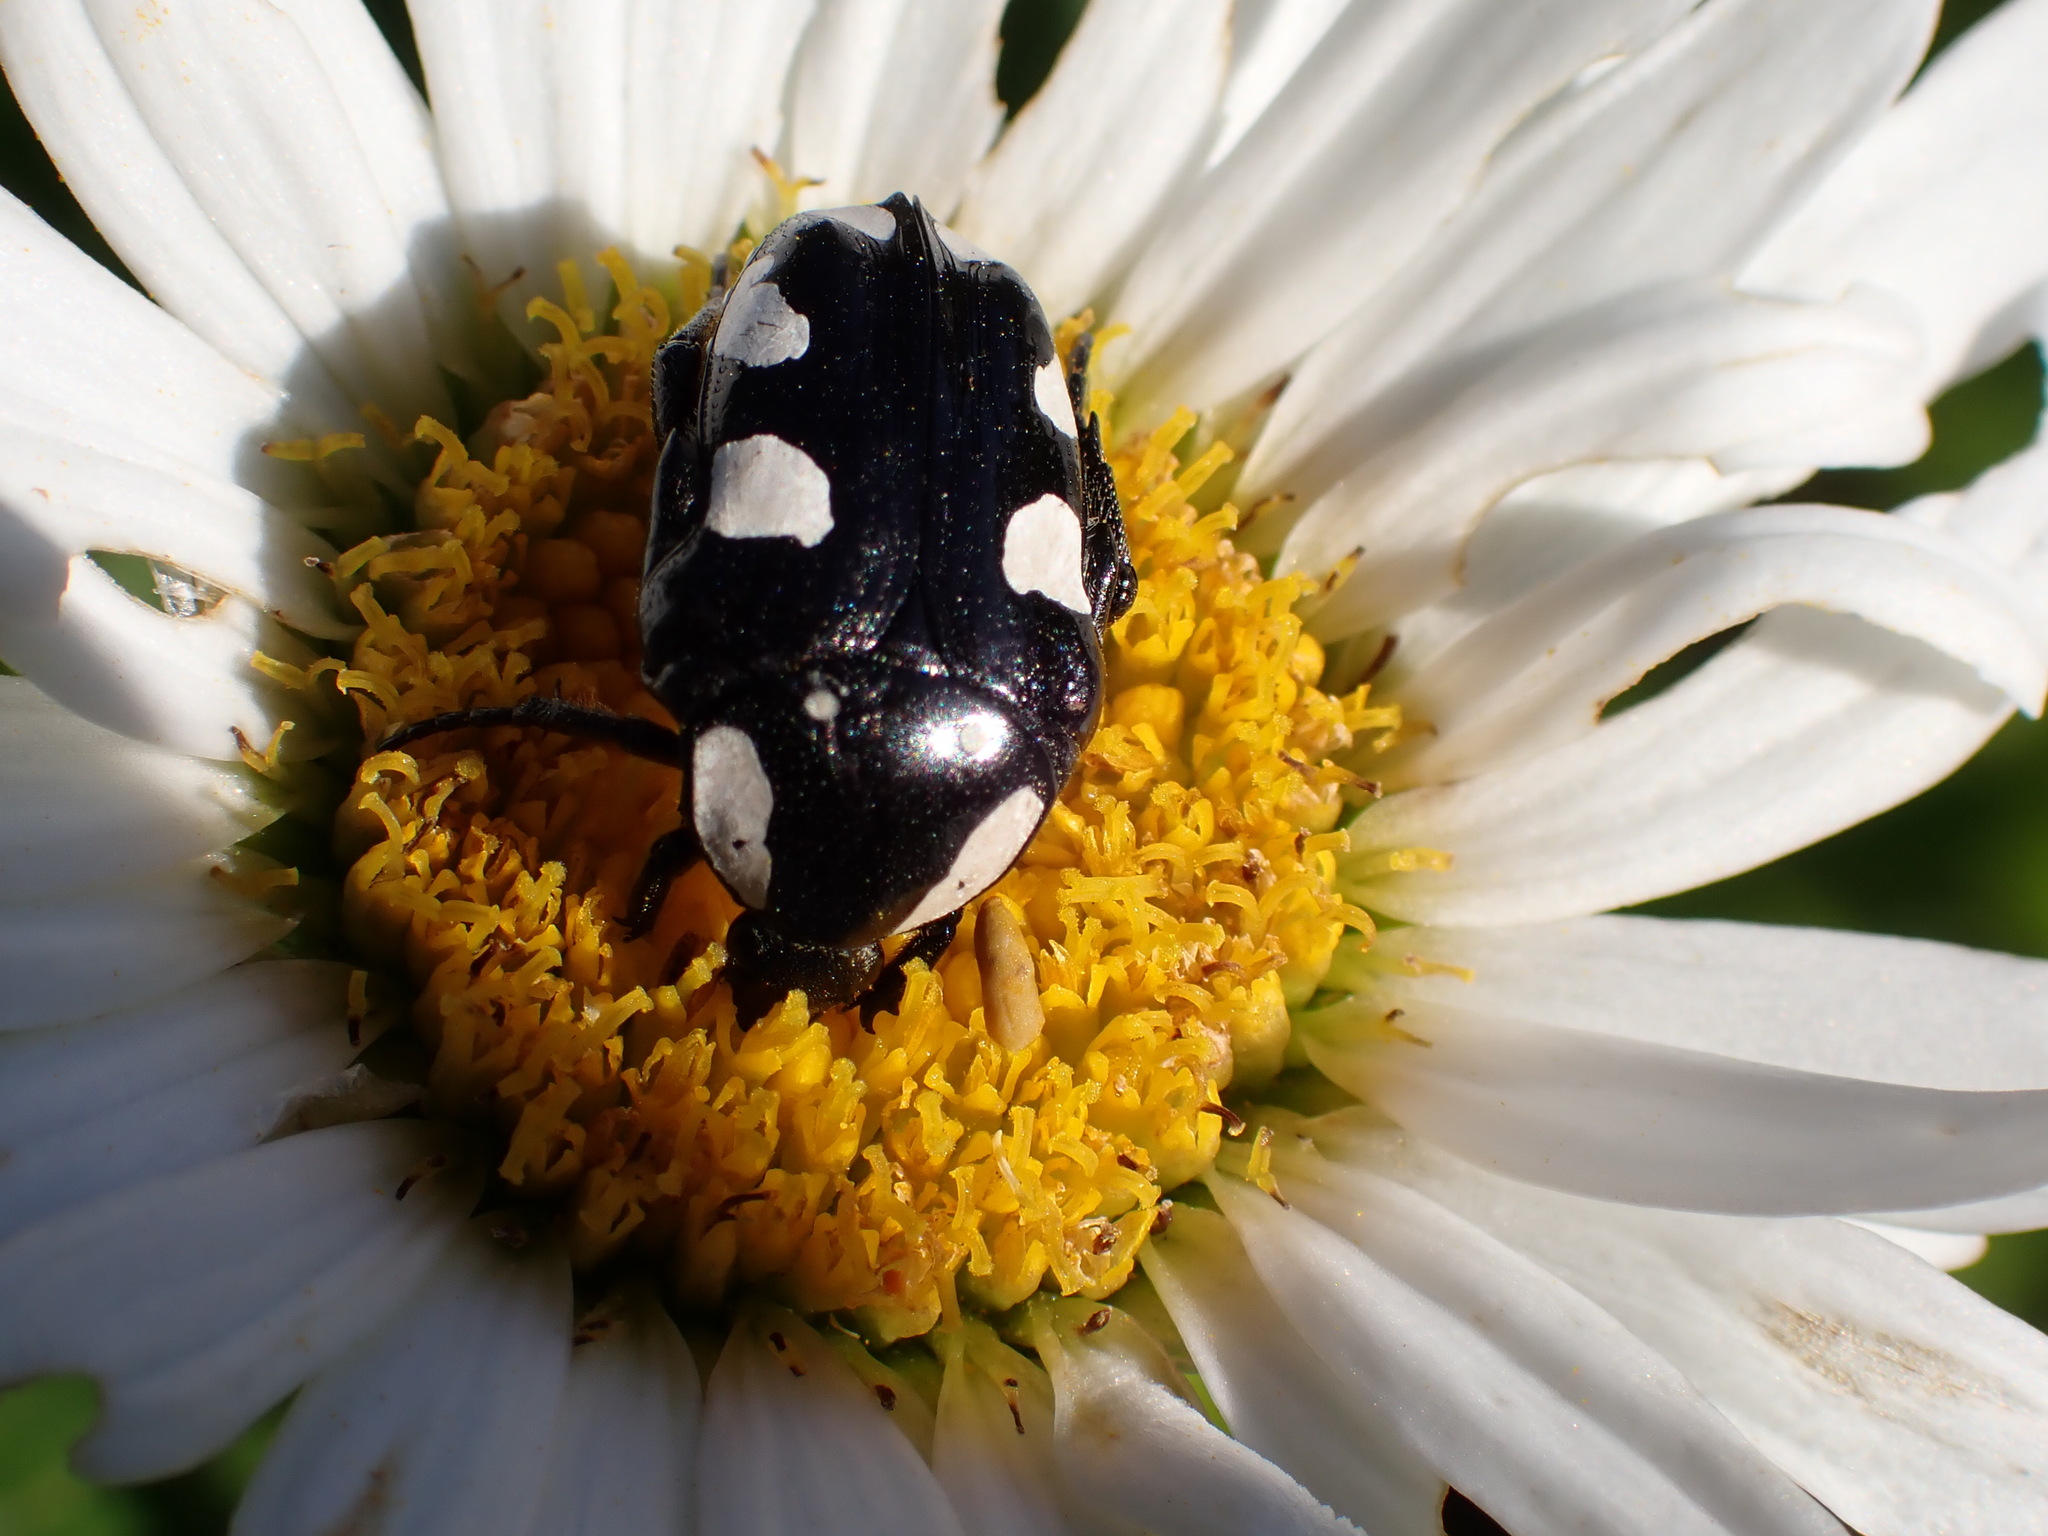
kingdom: Animalia
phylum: Arthropoda
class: Insecta
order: Coleoptera
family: Scarabaeidae
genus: Mausoleopsis
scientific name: Mausoleopsis amabilis
